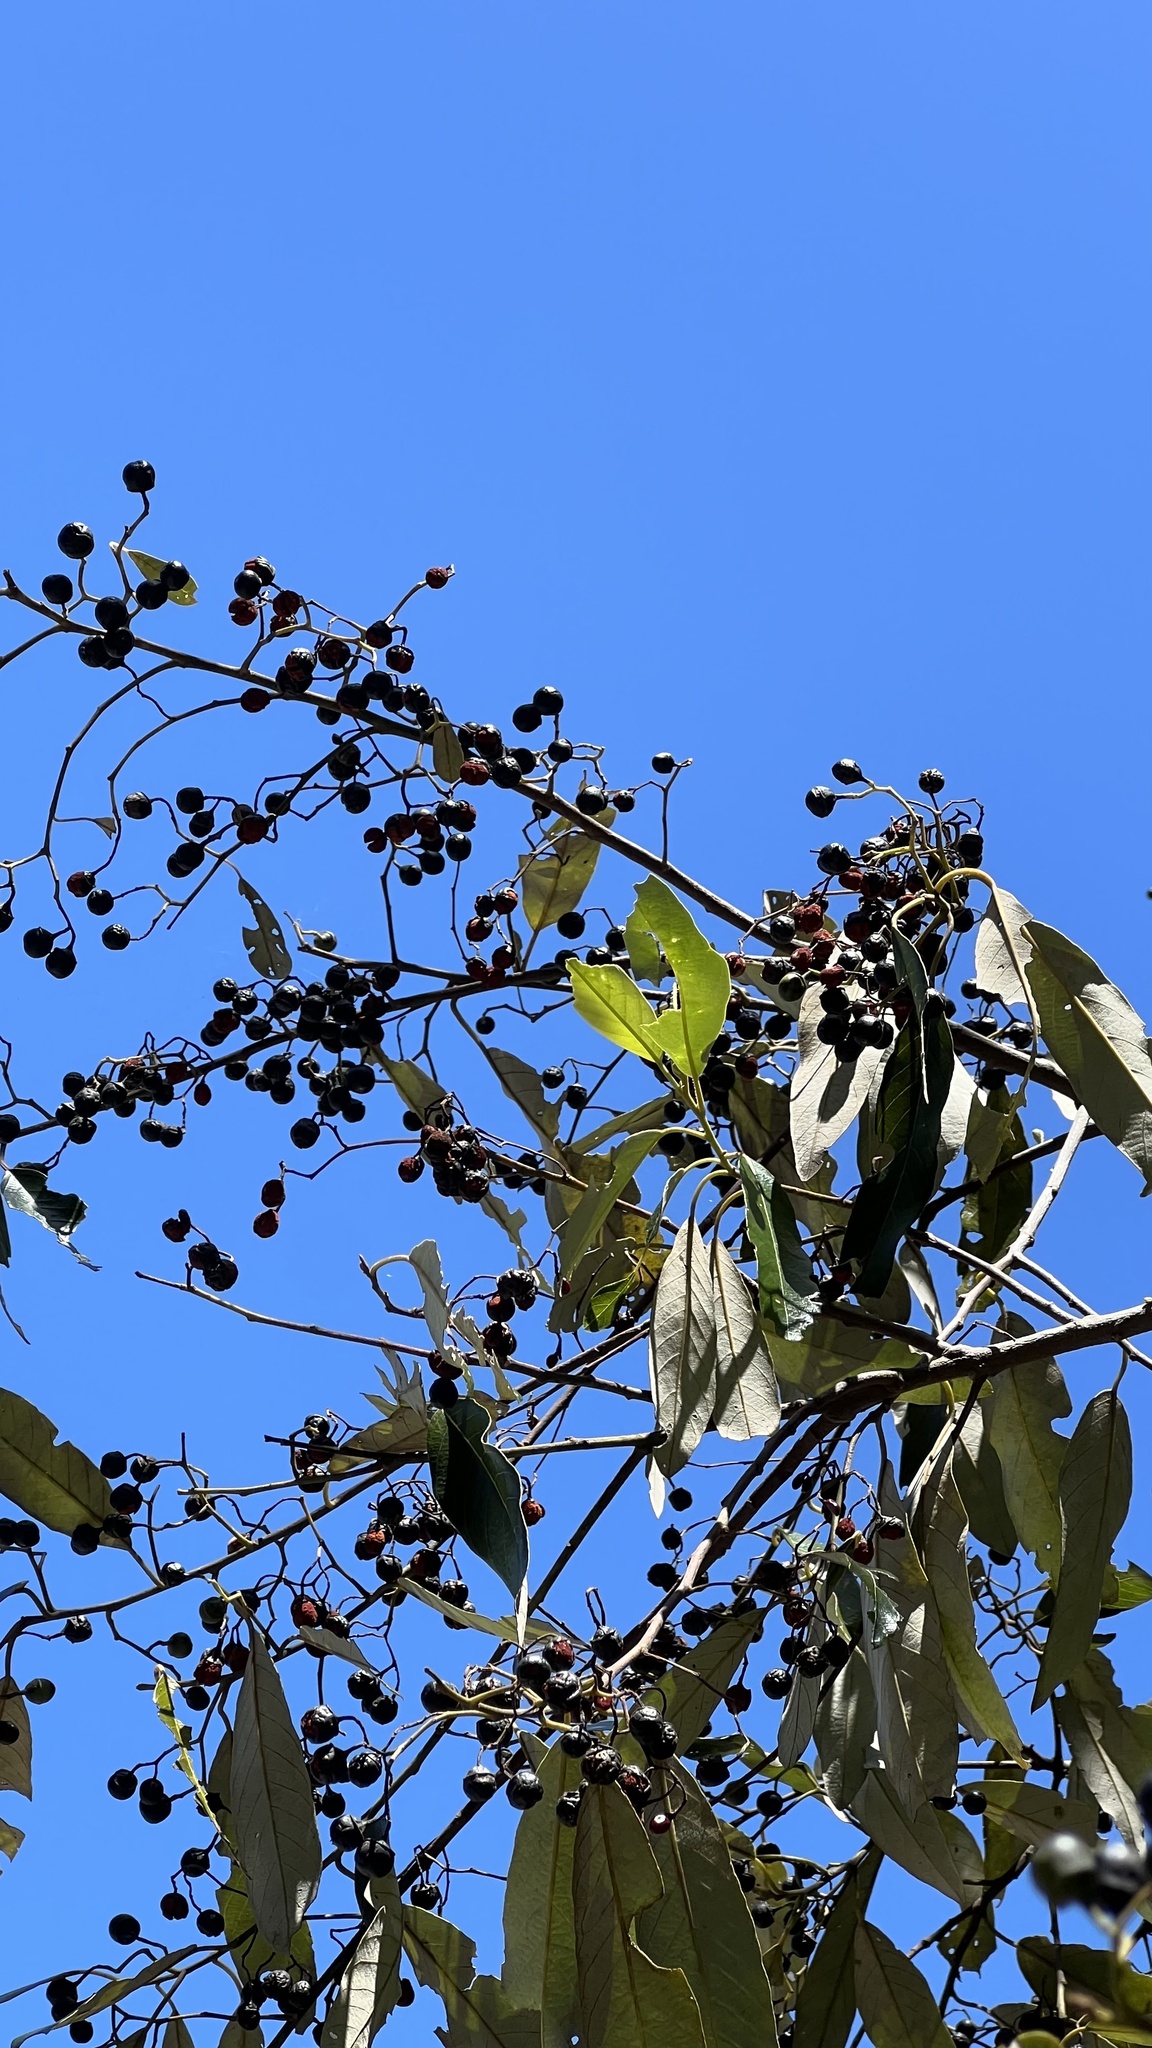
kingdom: Plantae
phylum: Tracheophyta
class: Magnoliopsida
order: Rosales
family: Rhamnaceae
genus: Alphitonia
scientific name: Alphitonia excelsa
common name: Red ash
